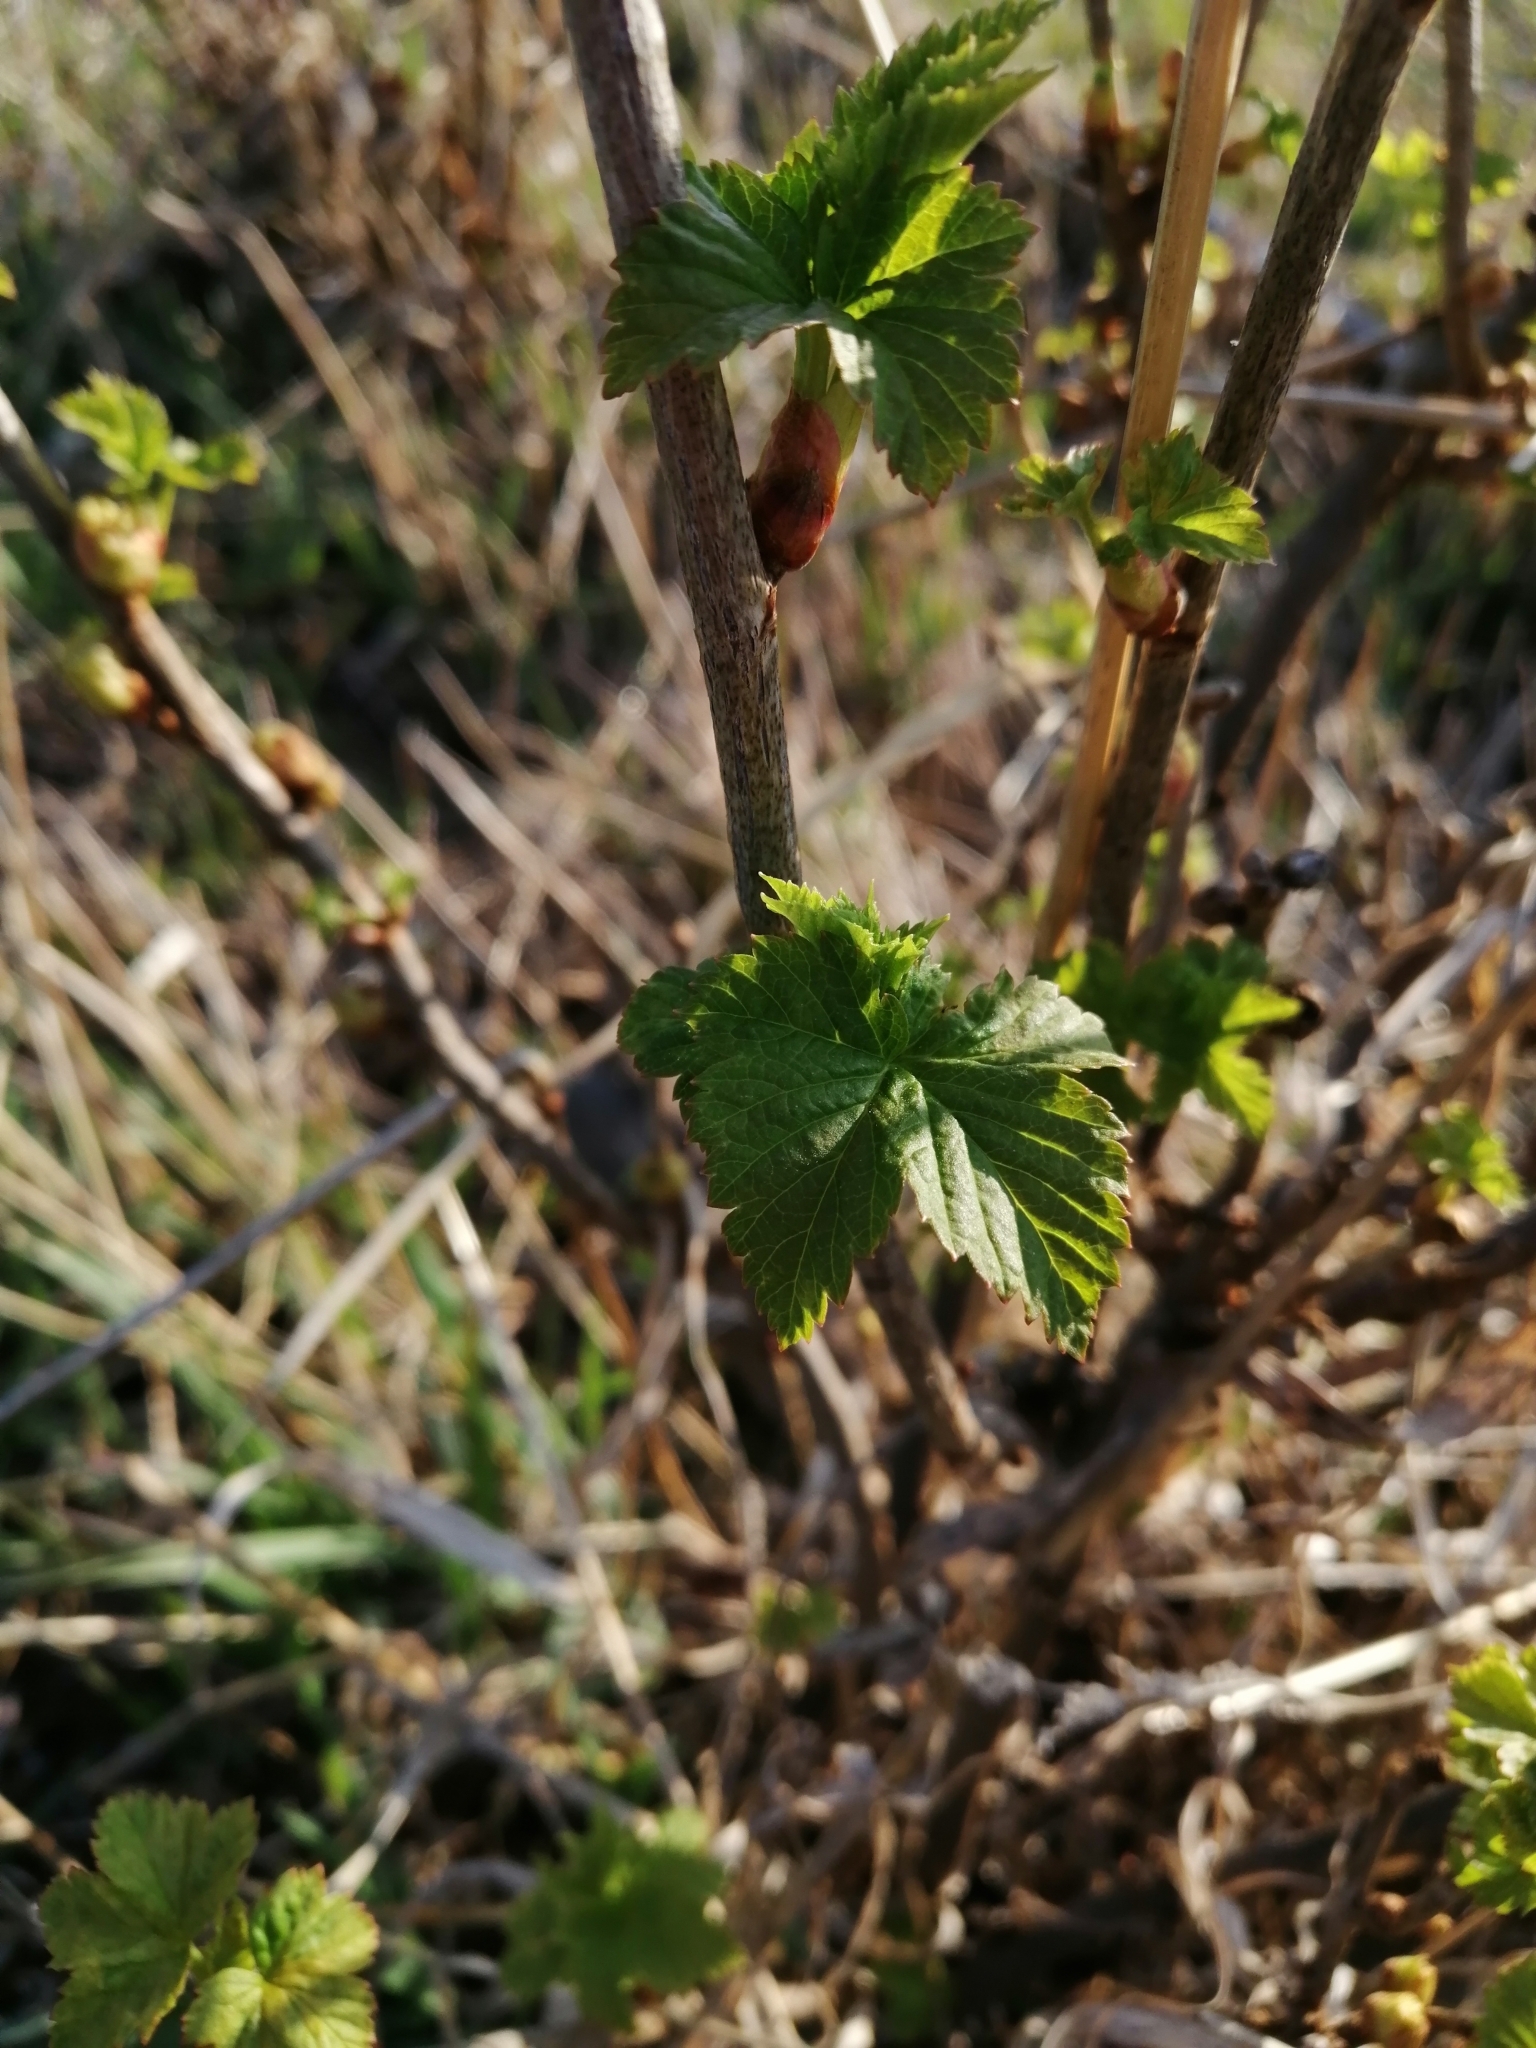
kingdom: Plantae
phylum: Tracheophyta
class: Magnoliopsida
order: Saxifragales
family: Grossulariaceae
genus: Ribes
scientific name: Ribes nigrum
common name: Black currant
